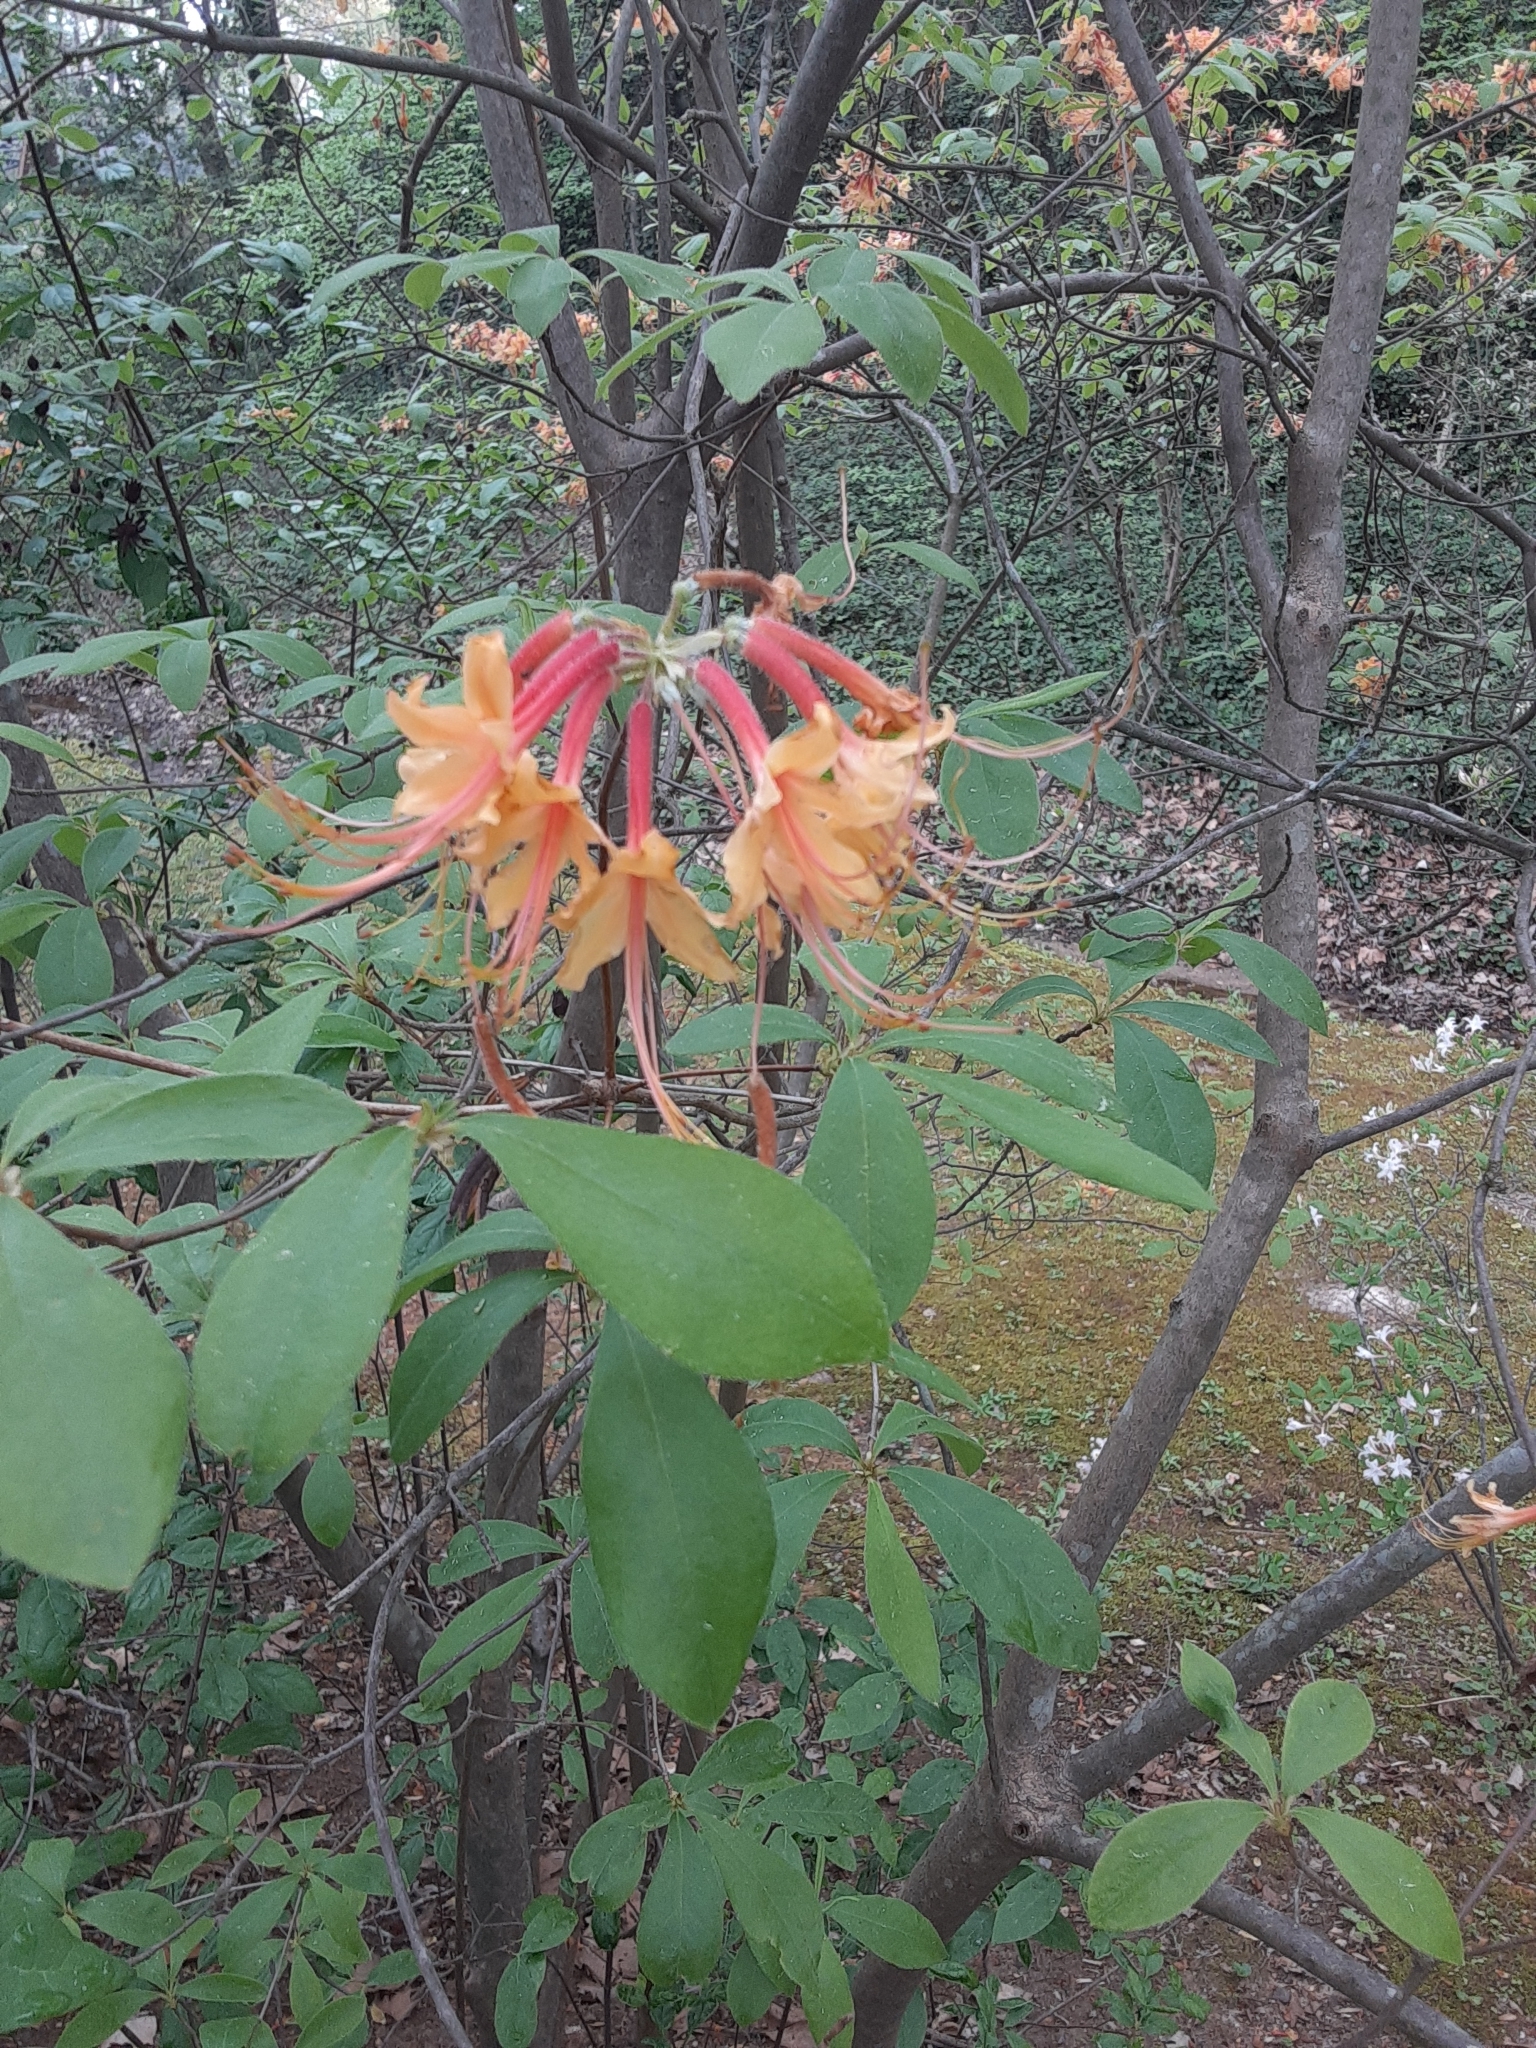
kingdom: Plantae
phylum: Tracheophyta
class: Magnoliopsida
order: Ericales
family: Ericaceae
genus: Rhododendron
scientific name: Rhododendron calendulaceum
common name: Flame azalea
